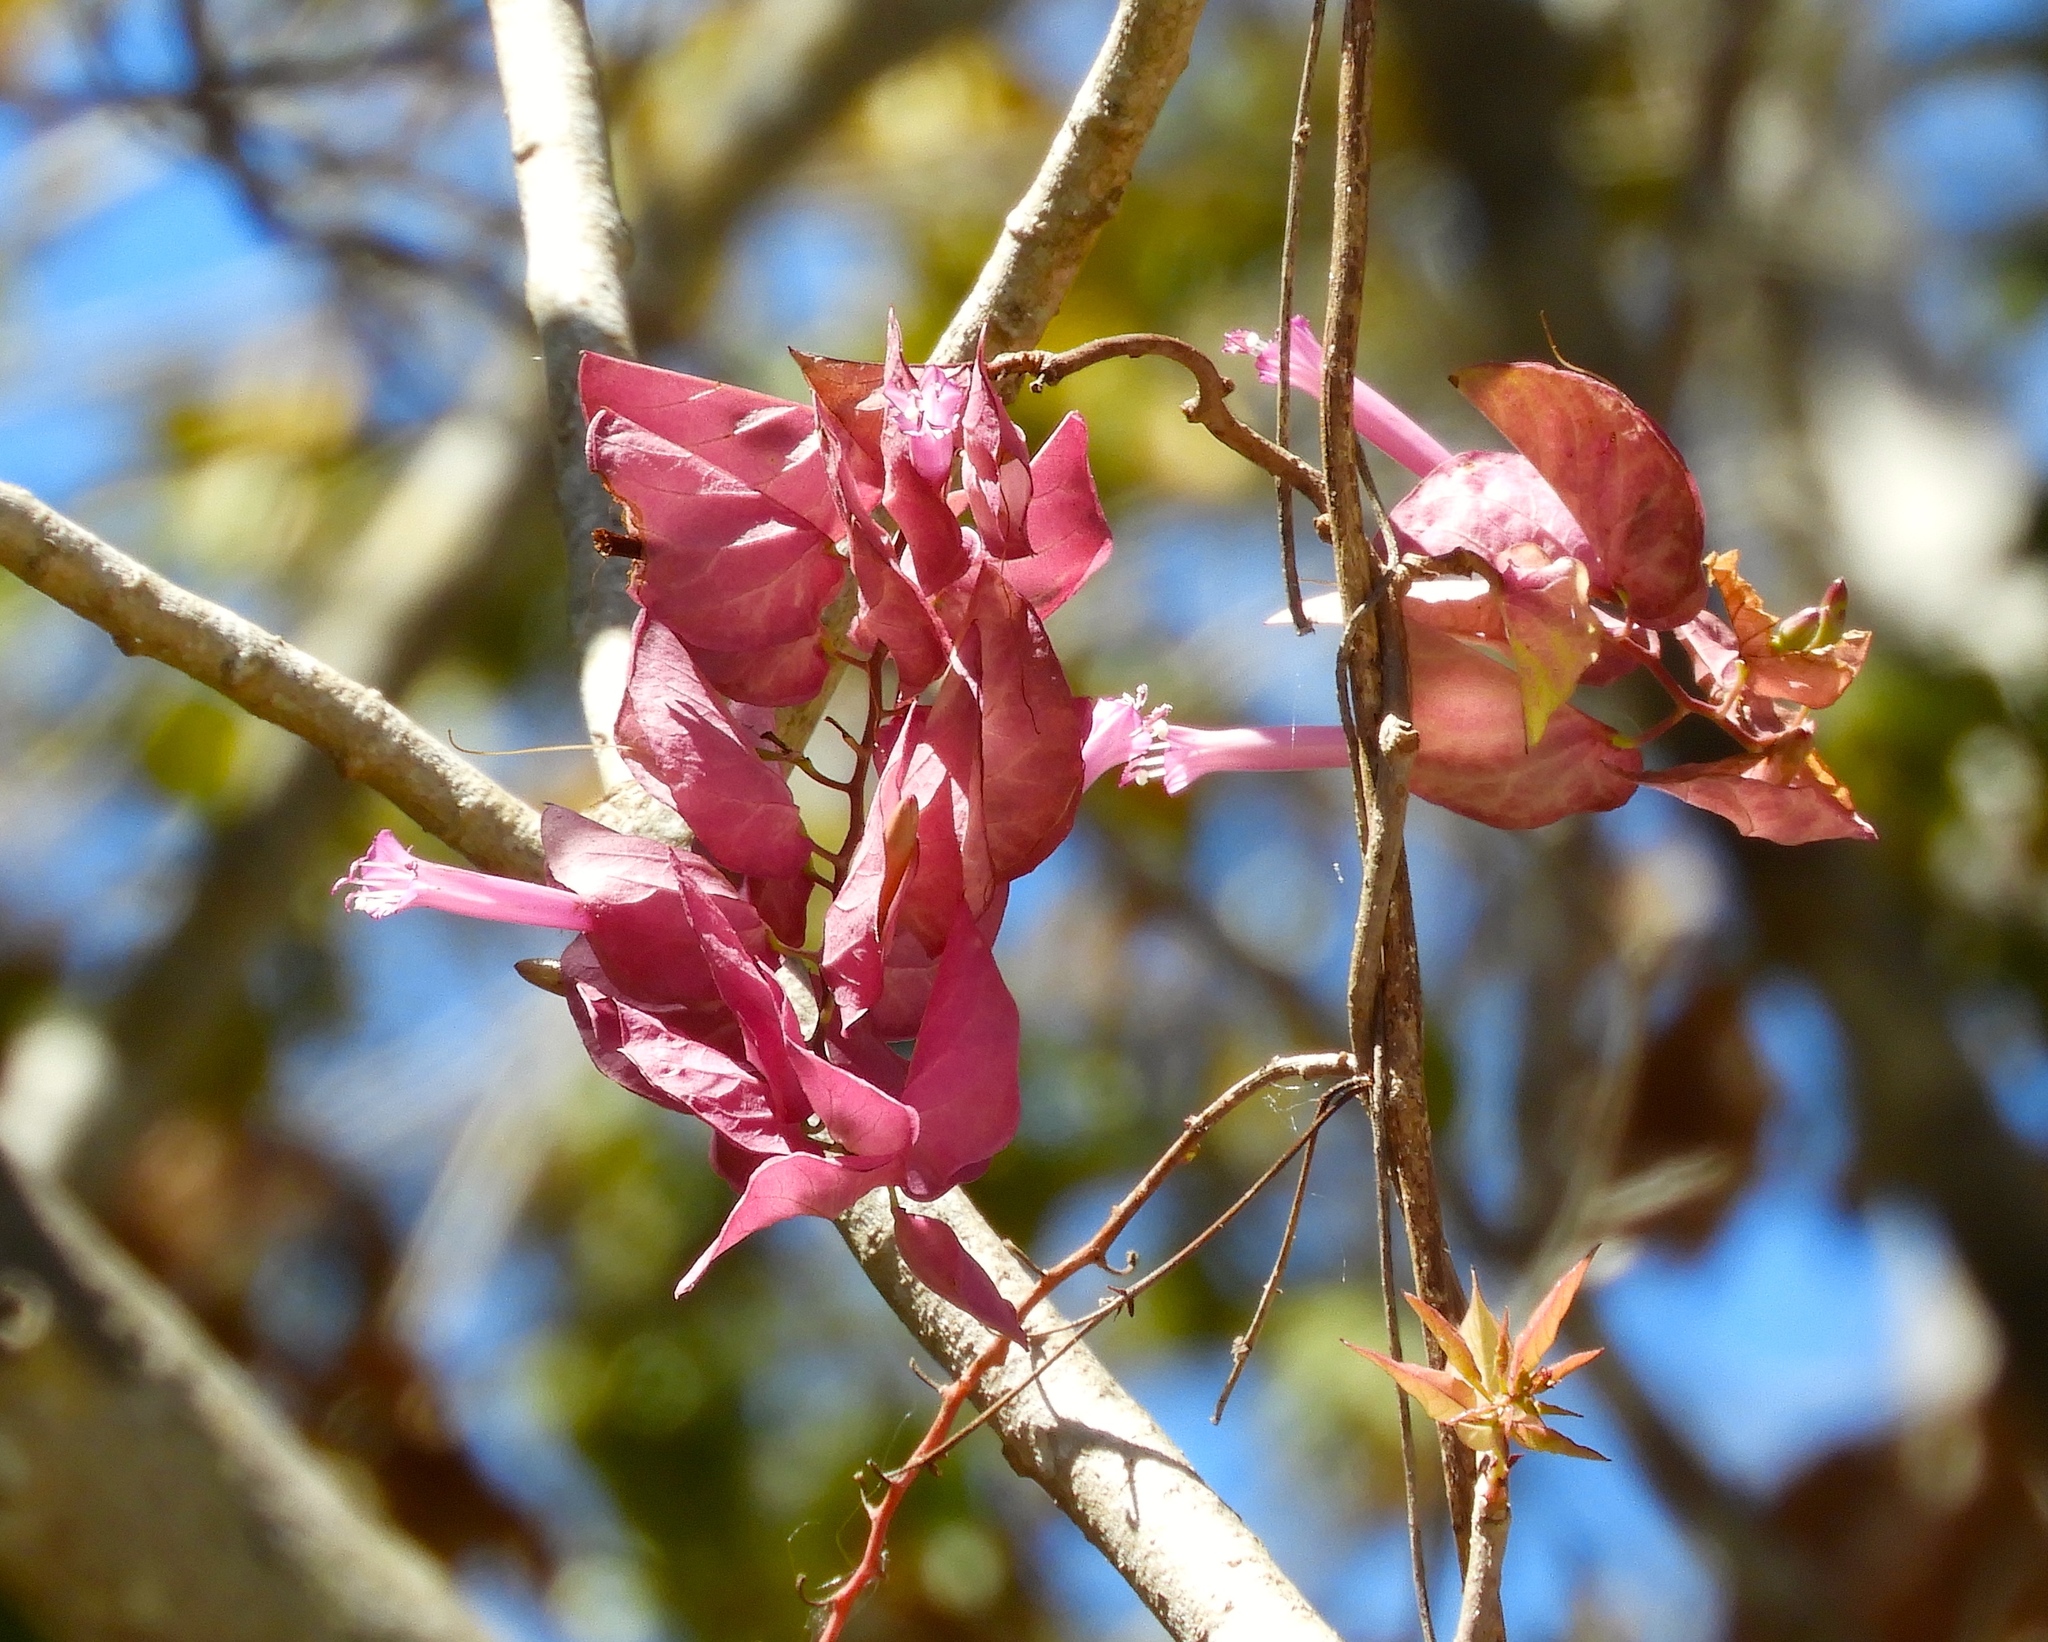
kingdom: Plantae
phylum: Tracheophyta
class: Magnoliopsida
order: Solanales
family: Convolvulaceae
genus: Ipomoea
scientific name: Ipomoea bracteata
